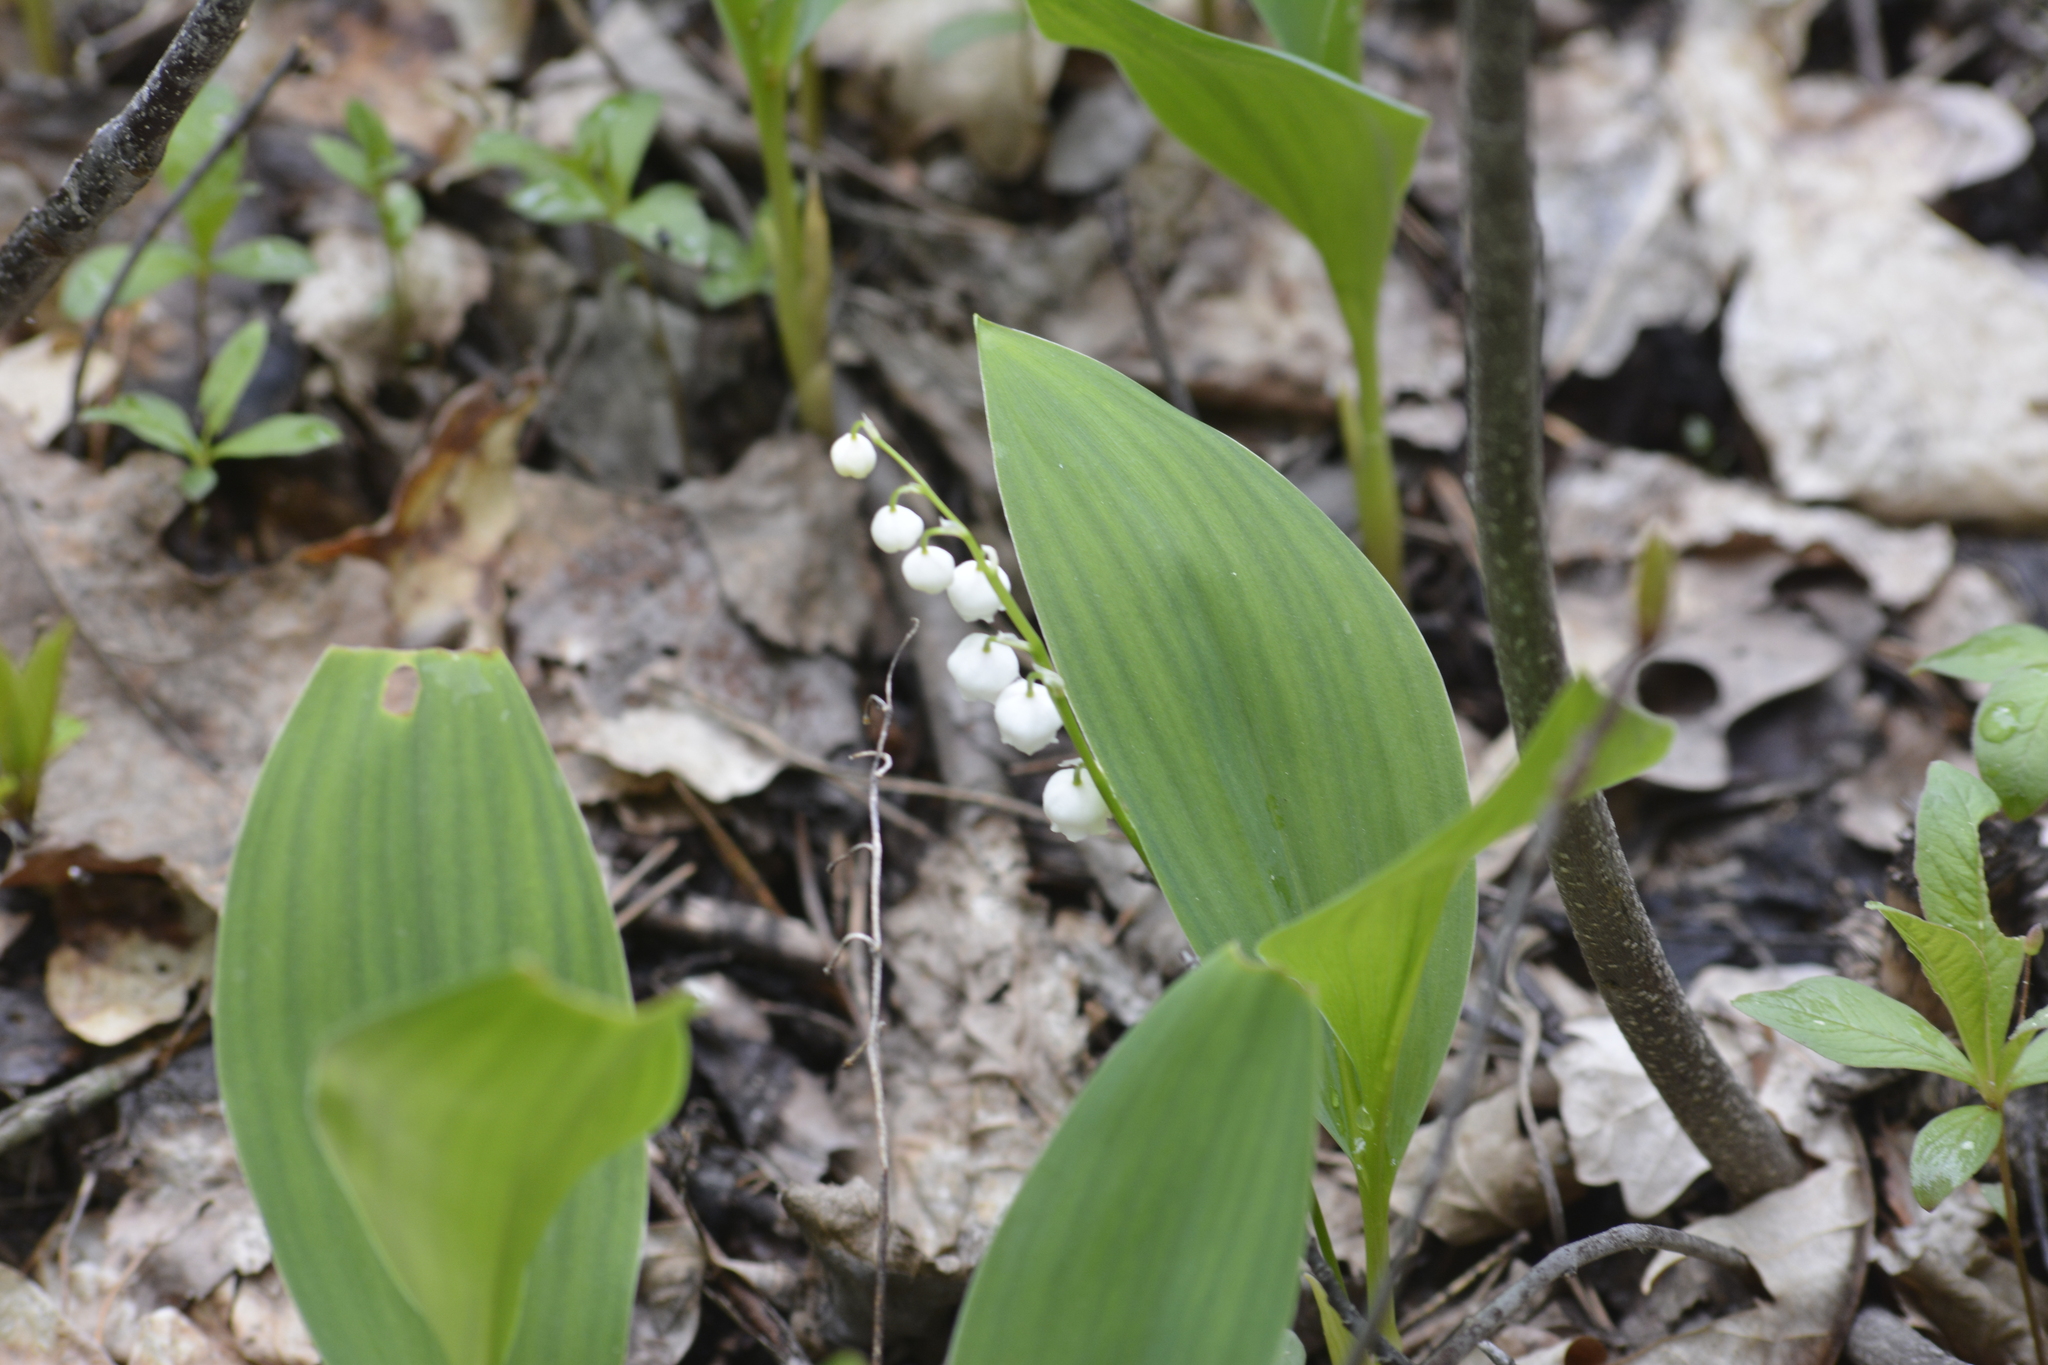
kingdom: Plantae
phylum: Tracheophyta
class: Liliopsida
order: Asparagales
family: Asparagaceae
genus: Convallaria
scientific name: Convallaria majalis
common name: Lily-of-the-valley
